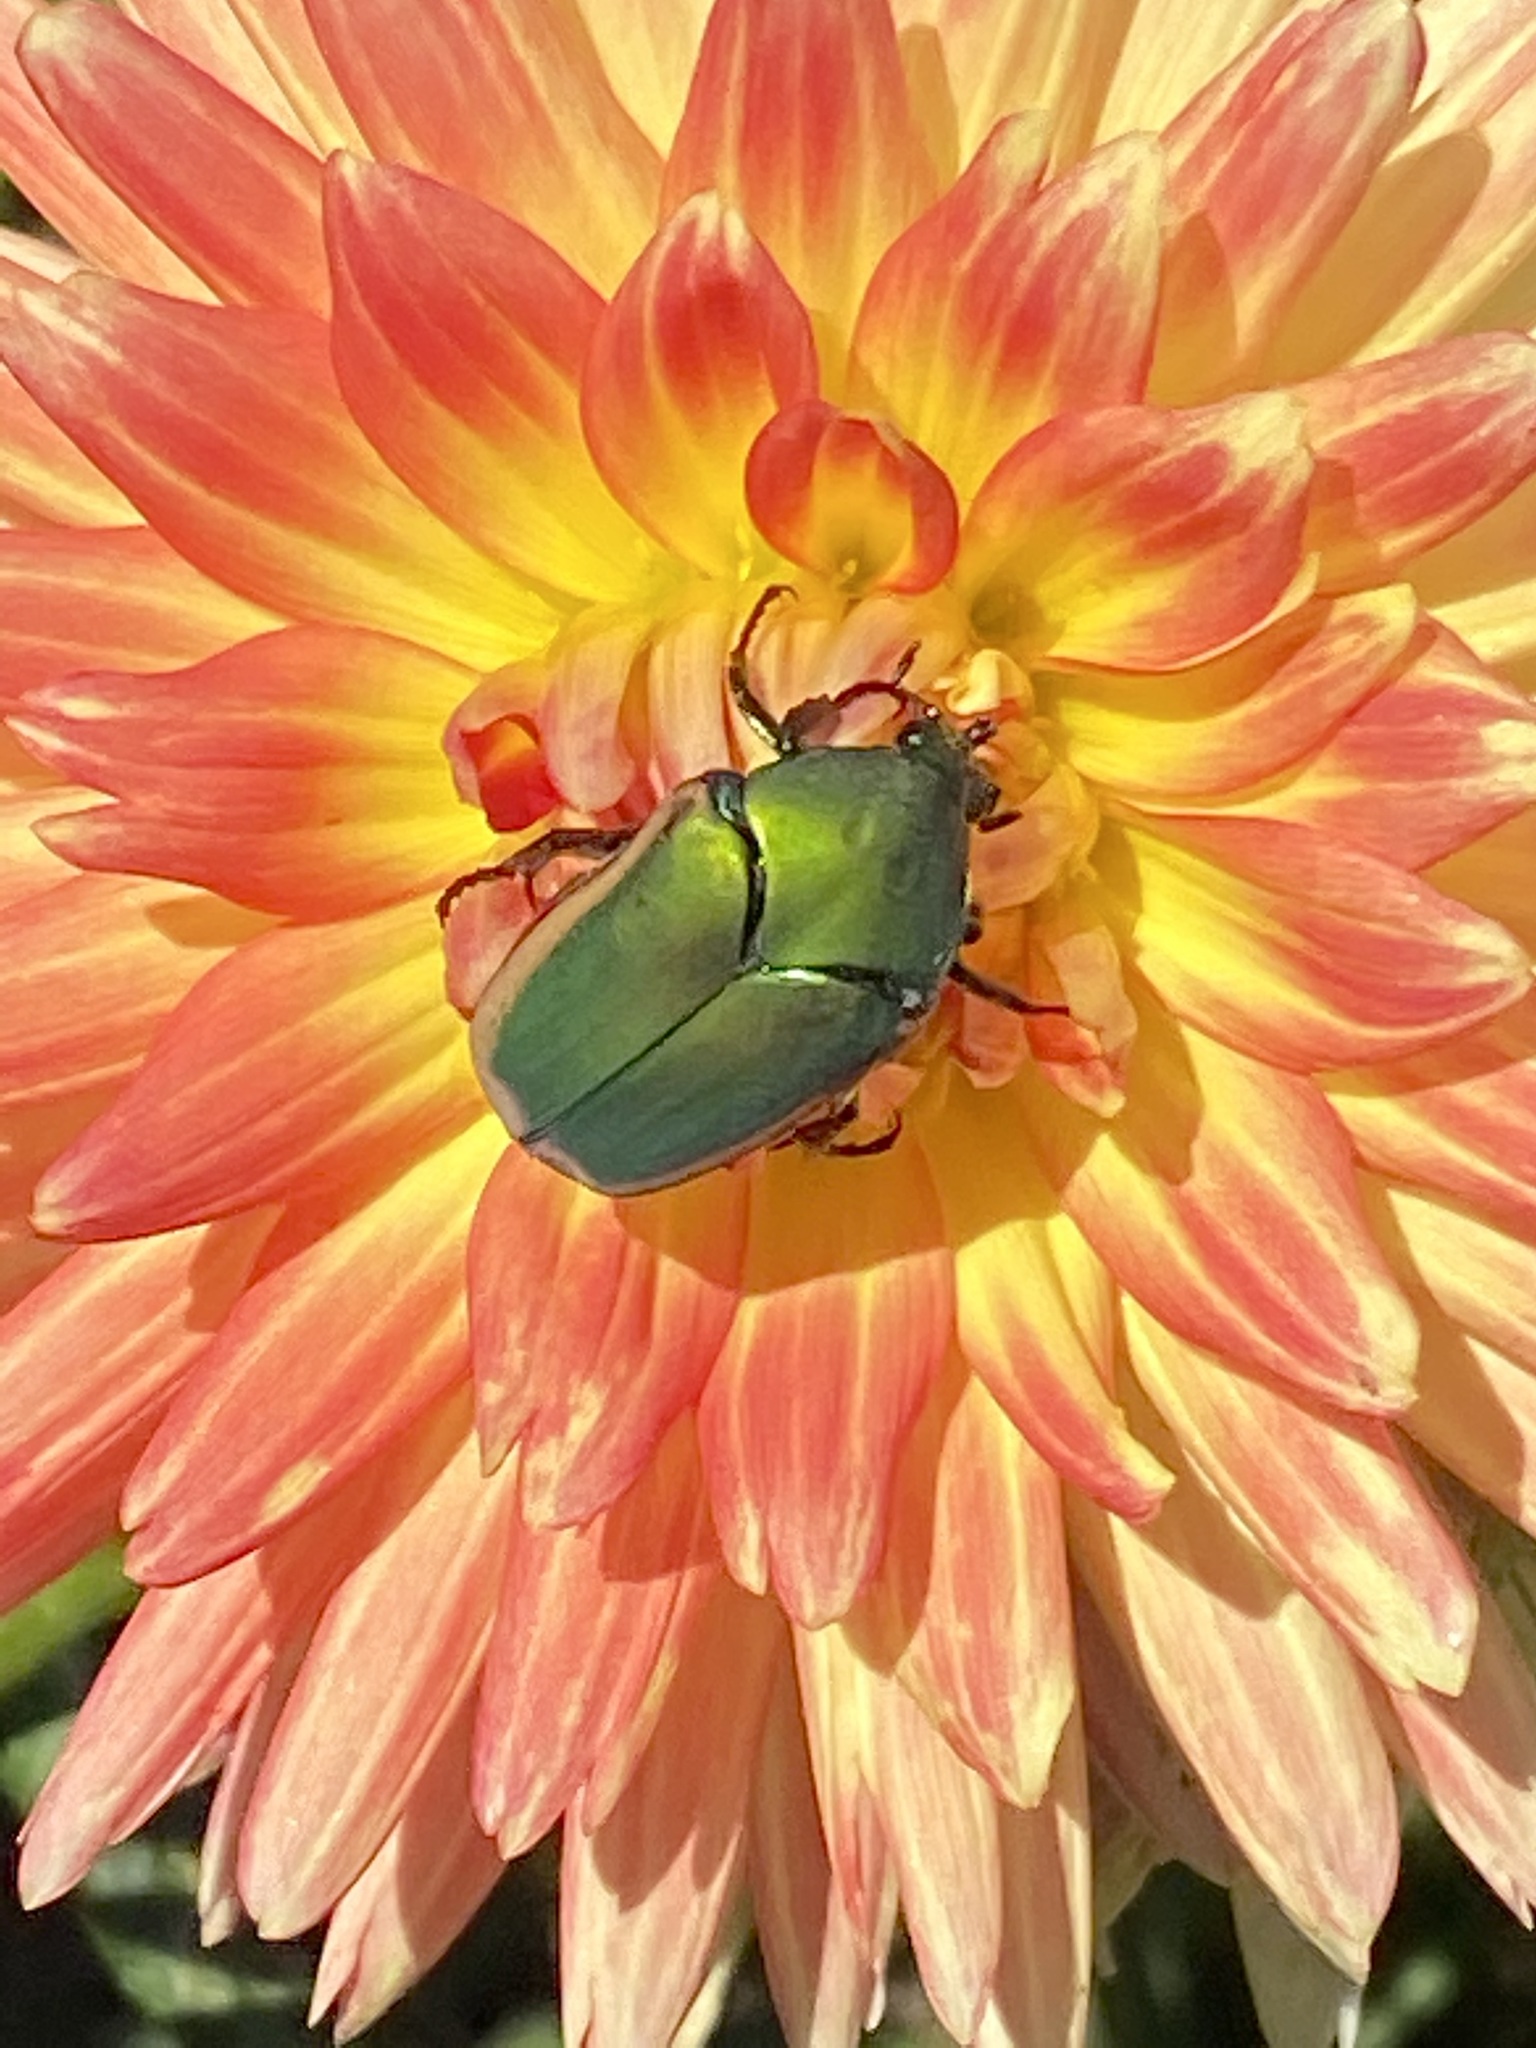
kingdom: Animalia
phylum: Arthropoda
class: Insecta
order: Coleoptera
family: Scarabaeidae
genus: Cotinis
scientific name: Cotinis mutabilis
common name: Figeater beetle
